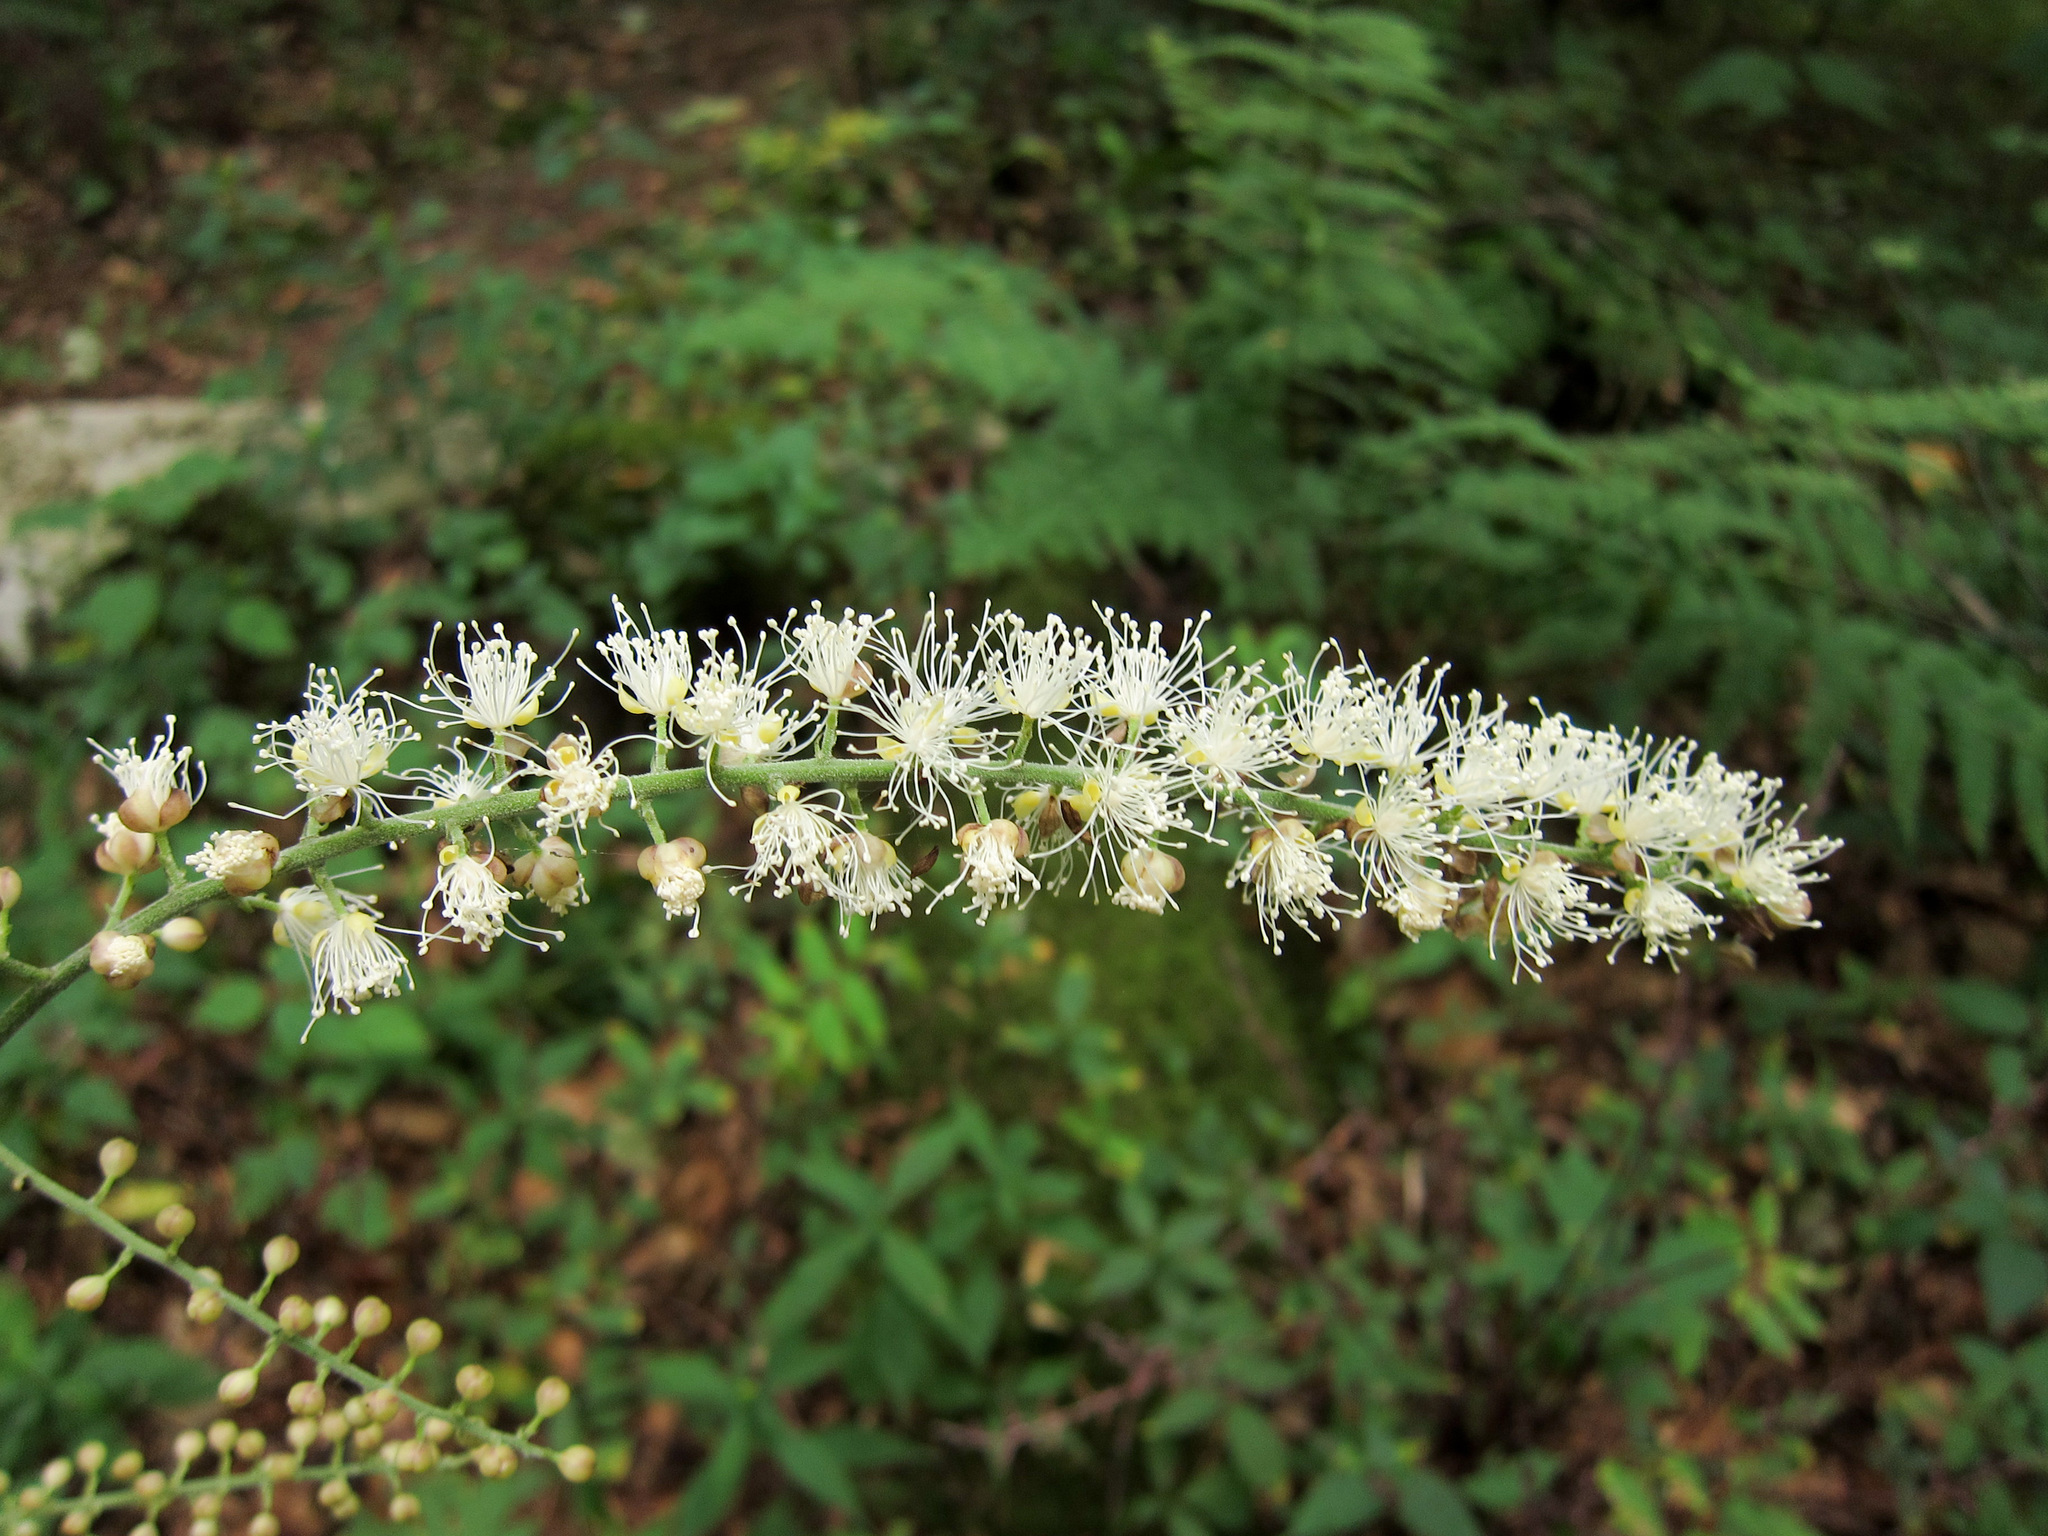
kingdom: Plantae
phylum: Tracheophyta
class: Magnoliopsida
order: Ranunculales
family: Ranunculaceae
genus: Actaea
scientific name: Actaea podocarpa
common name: American bugbane
